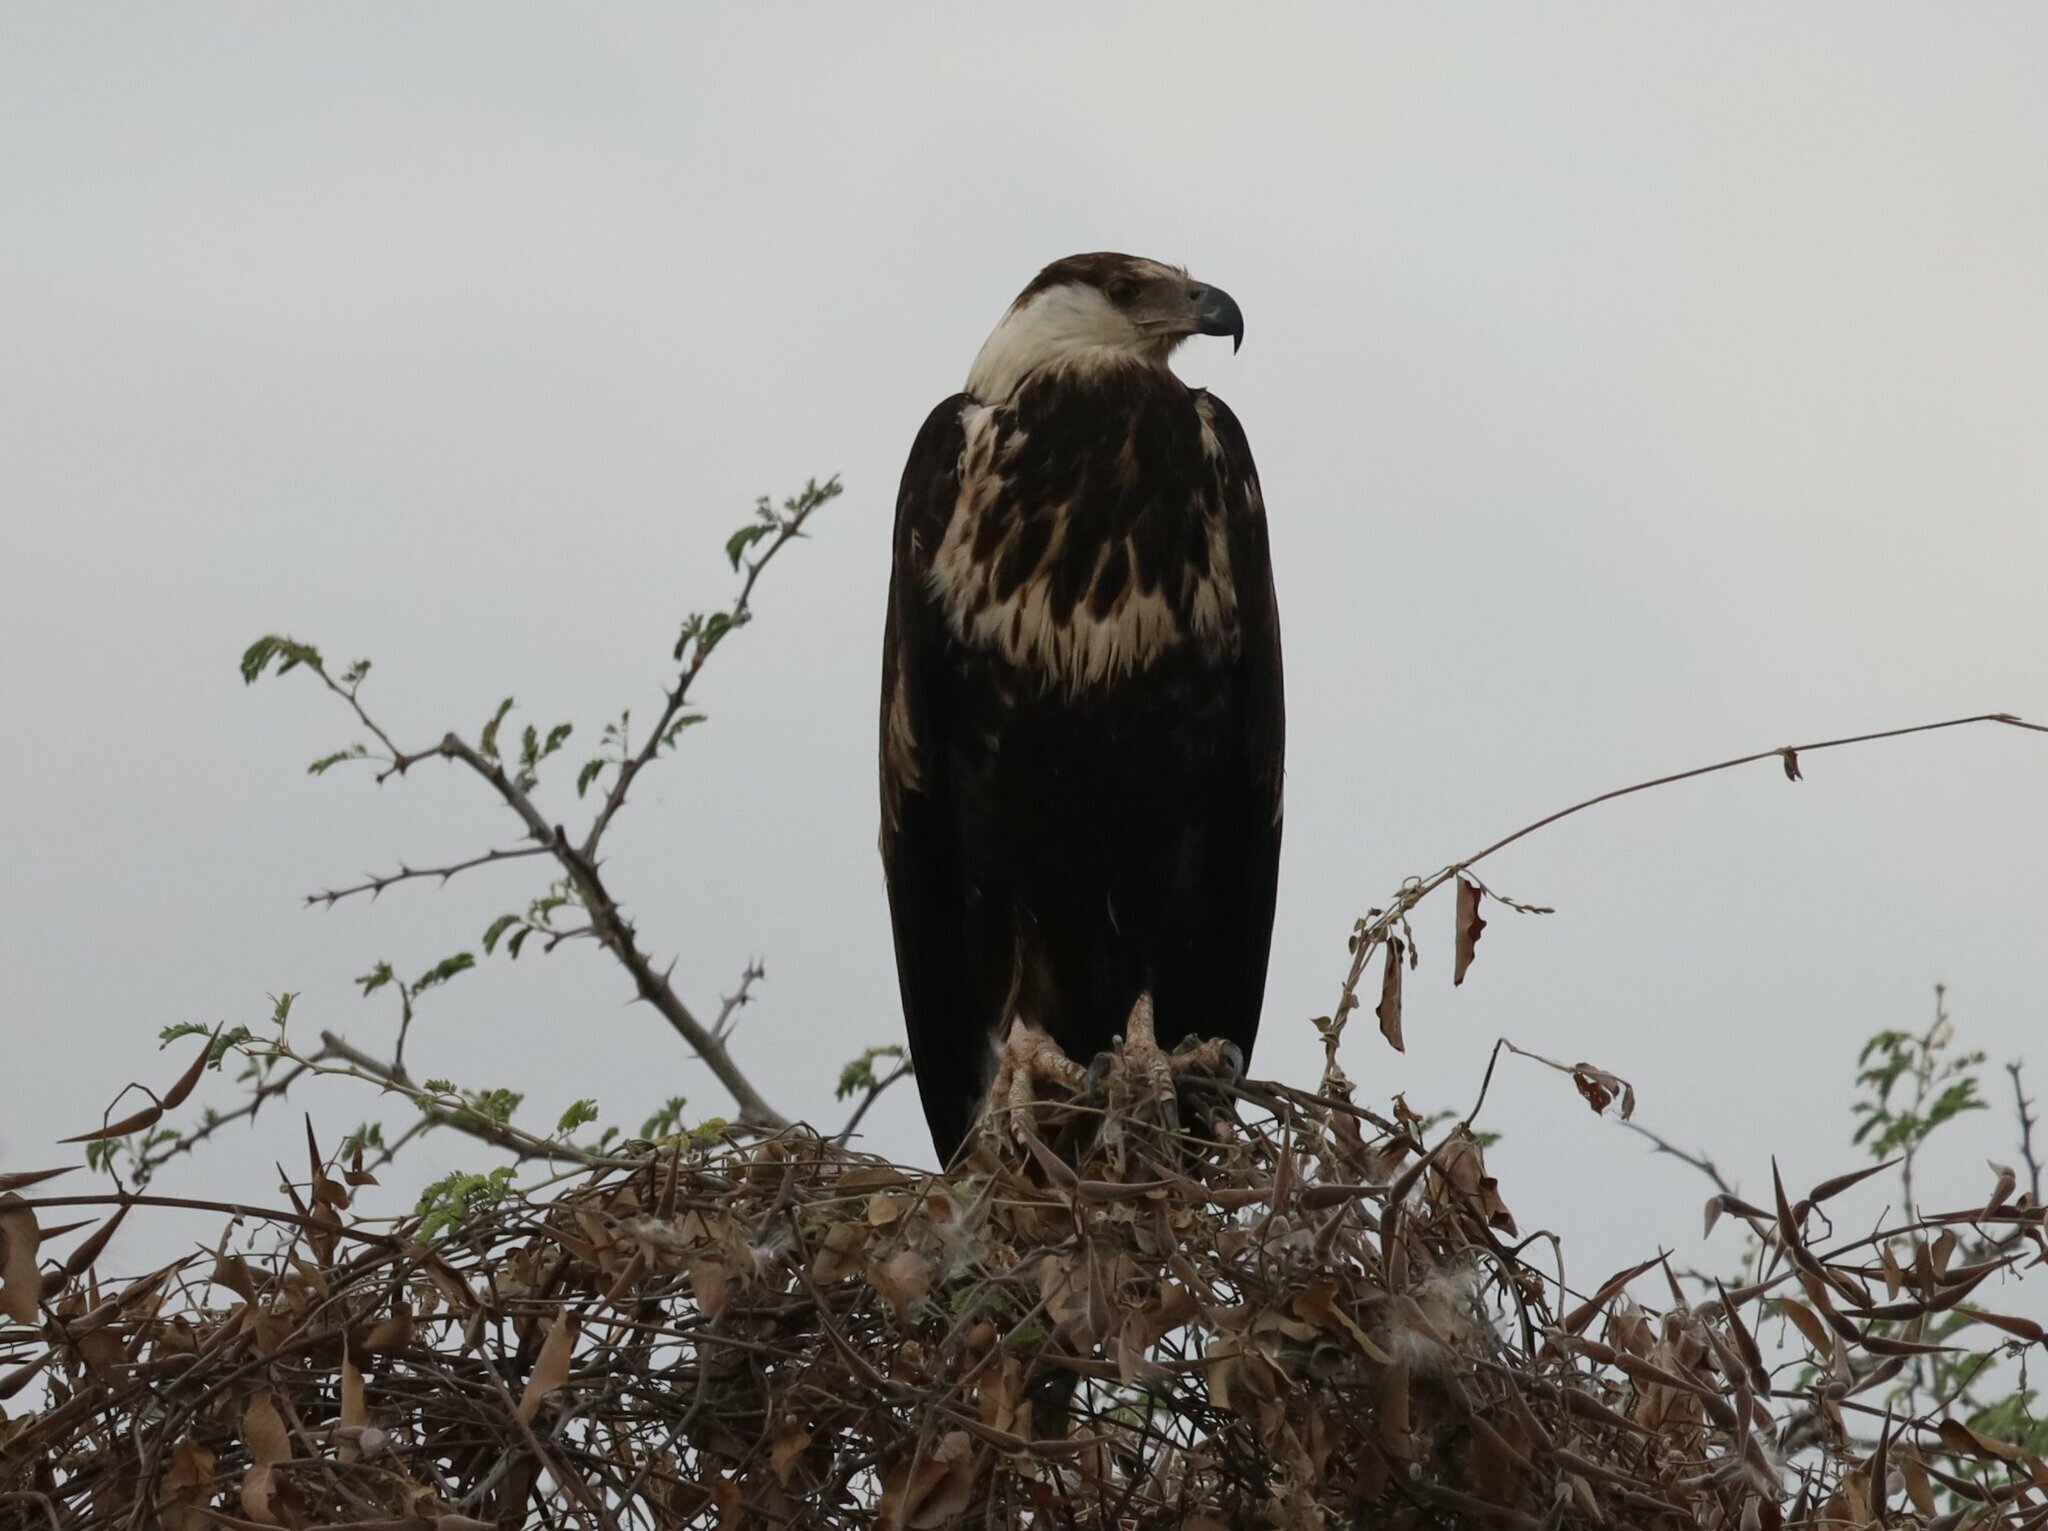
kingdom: Animalia
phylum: Chordata
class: Aves
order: Accipitriformes
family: Accipitridae
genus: Haliaeetus
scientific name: Haliaeetus vocifer
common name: African fish eagle
